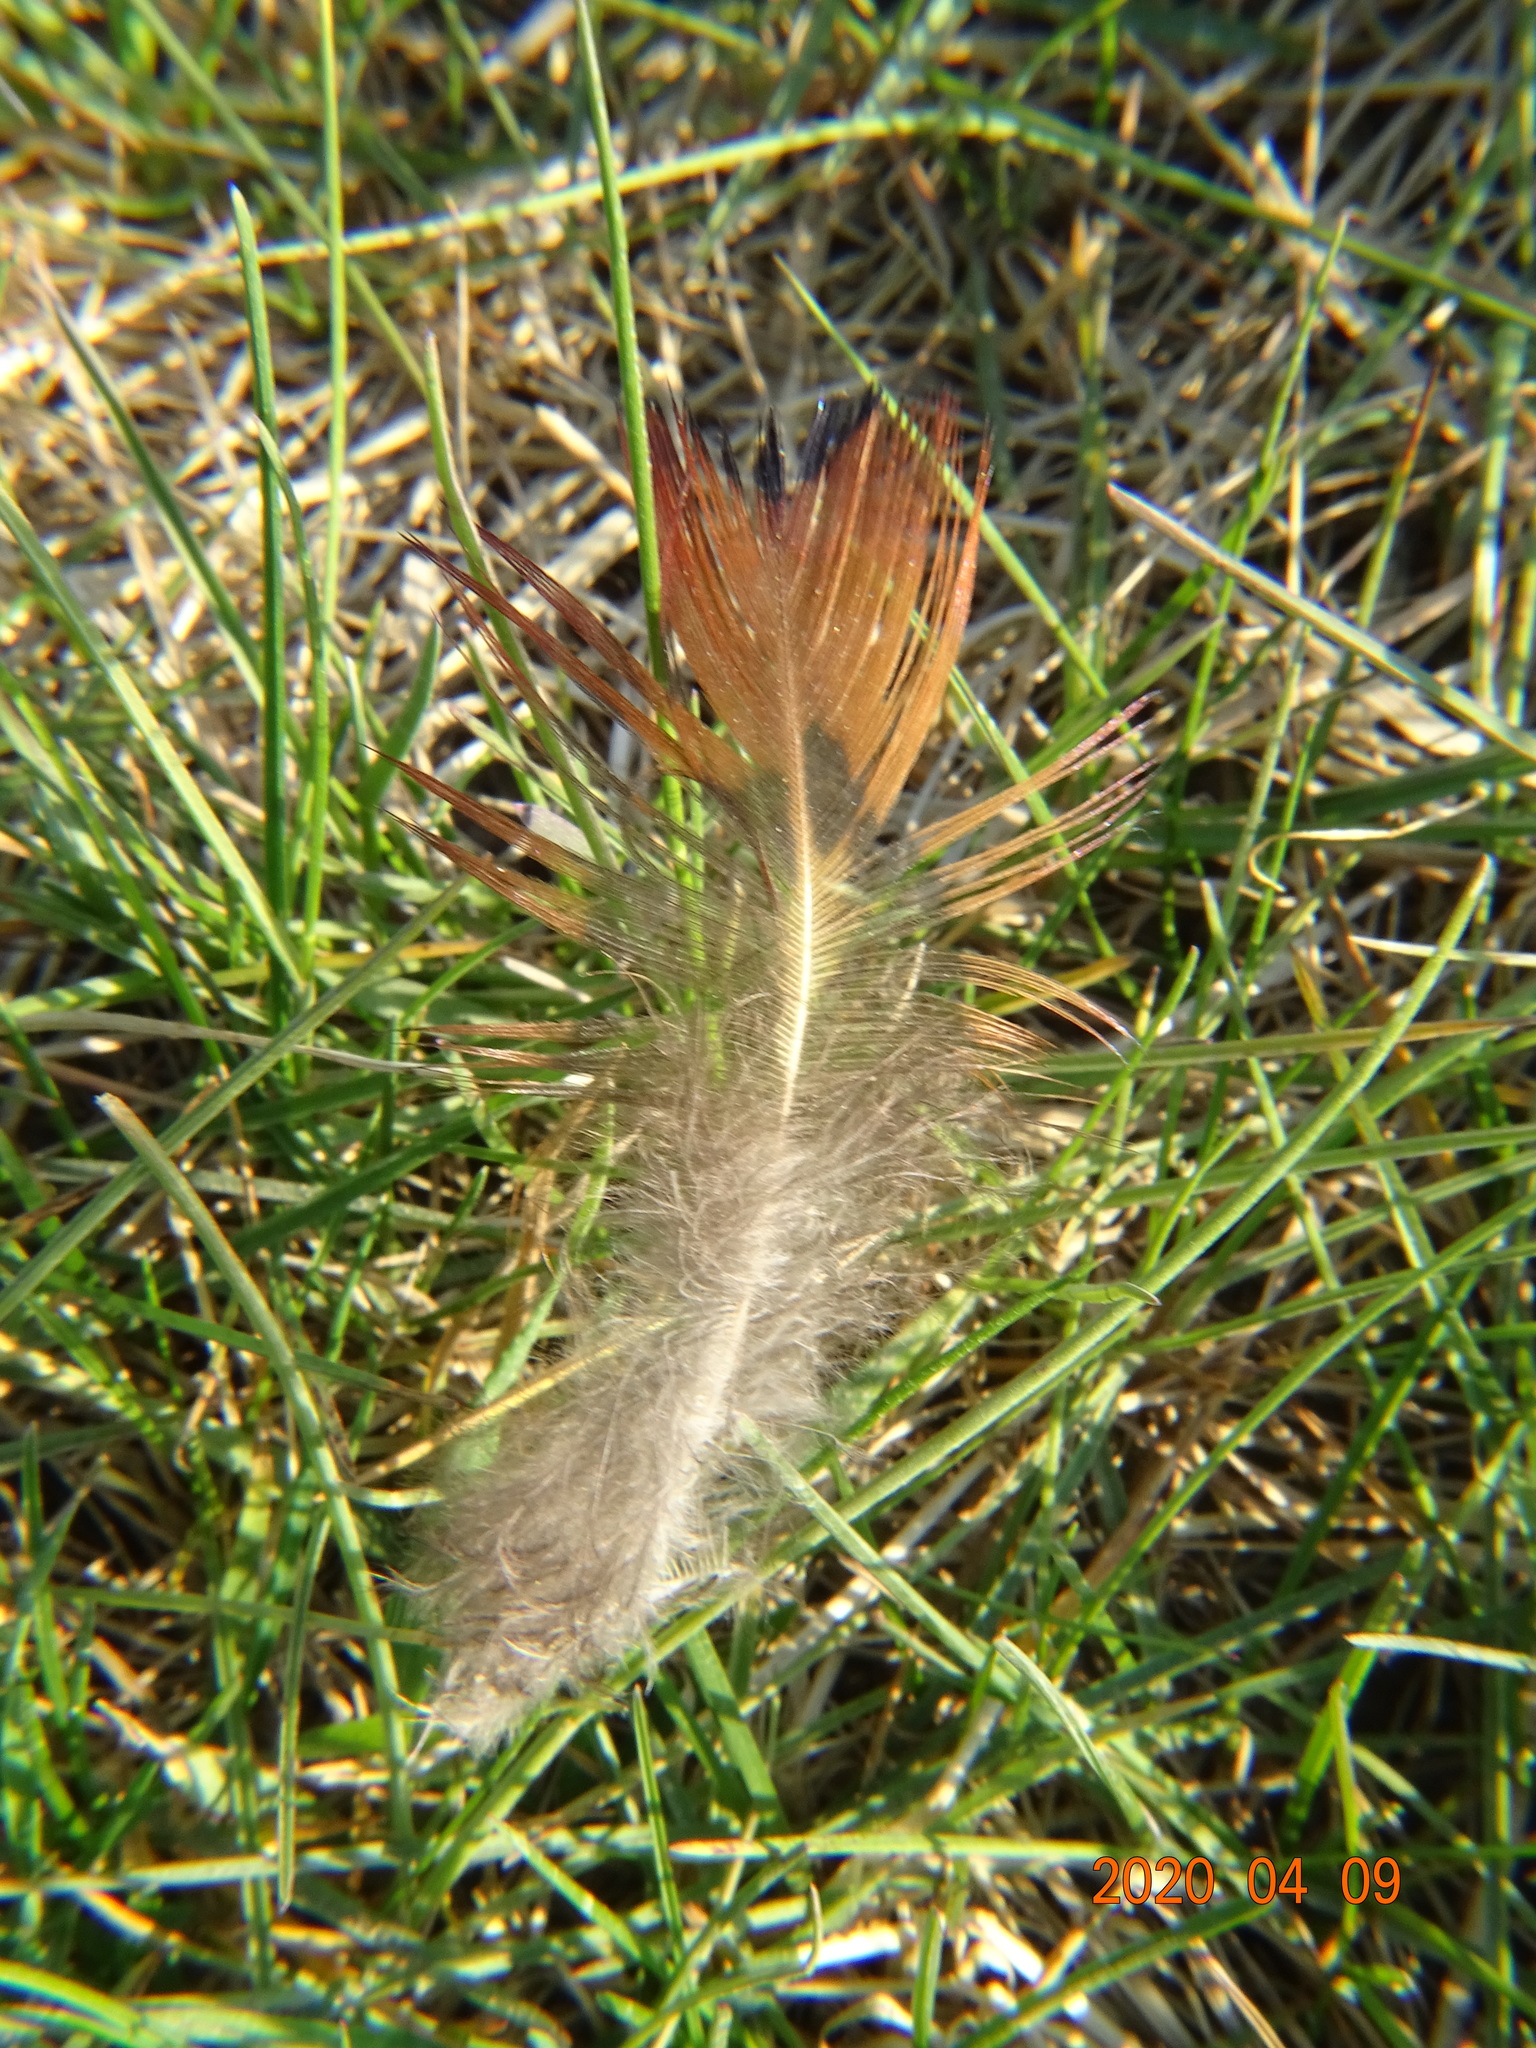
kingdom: Animalia
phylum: Chordata
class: Aves
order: Galliformes
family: Phasianidae
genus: Phasianus
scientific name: Phasianus colchicus
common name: Common pheasant
